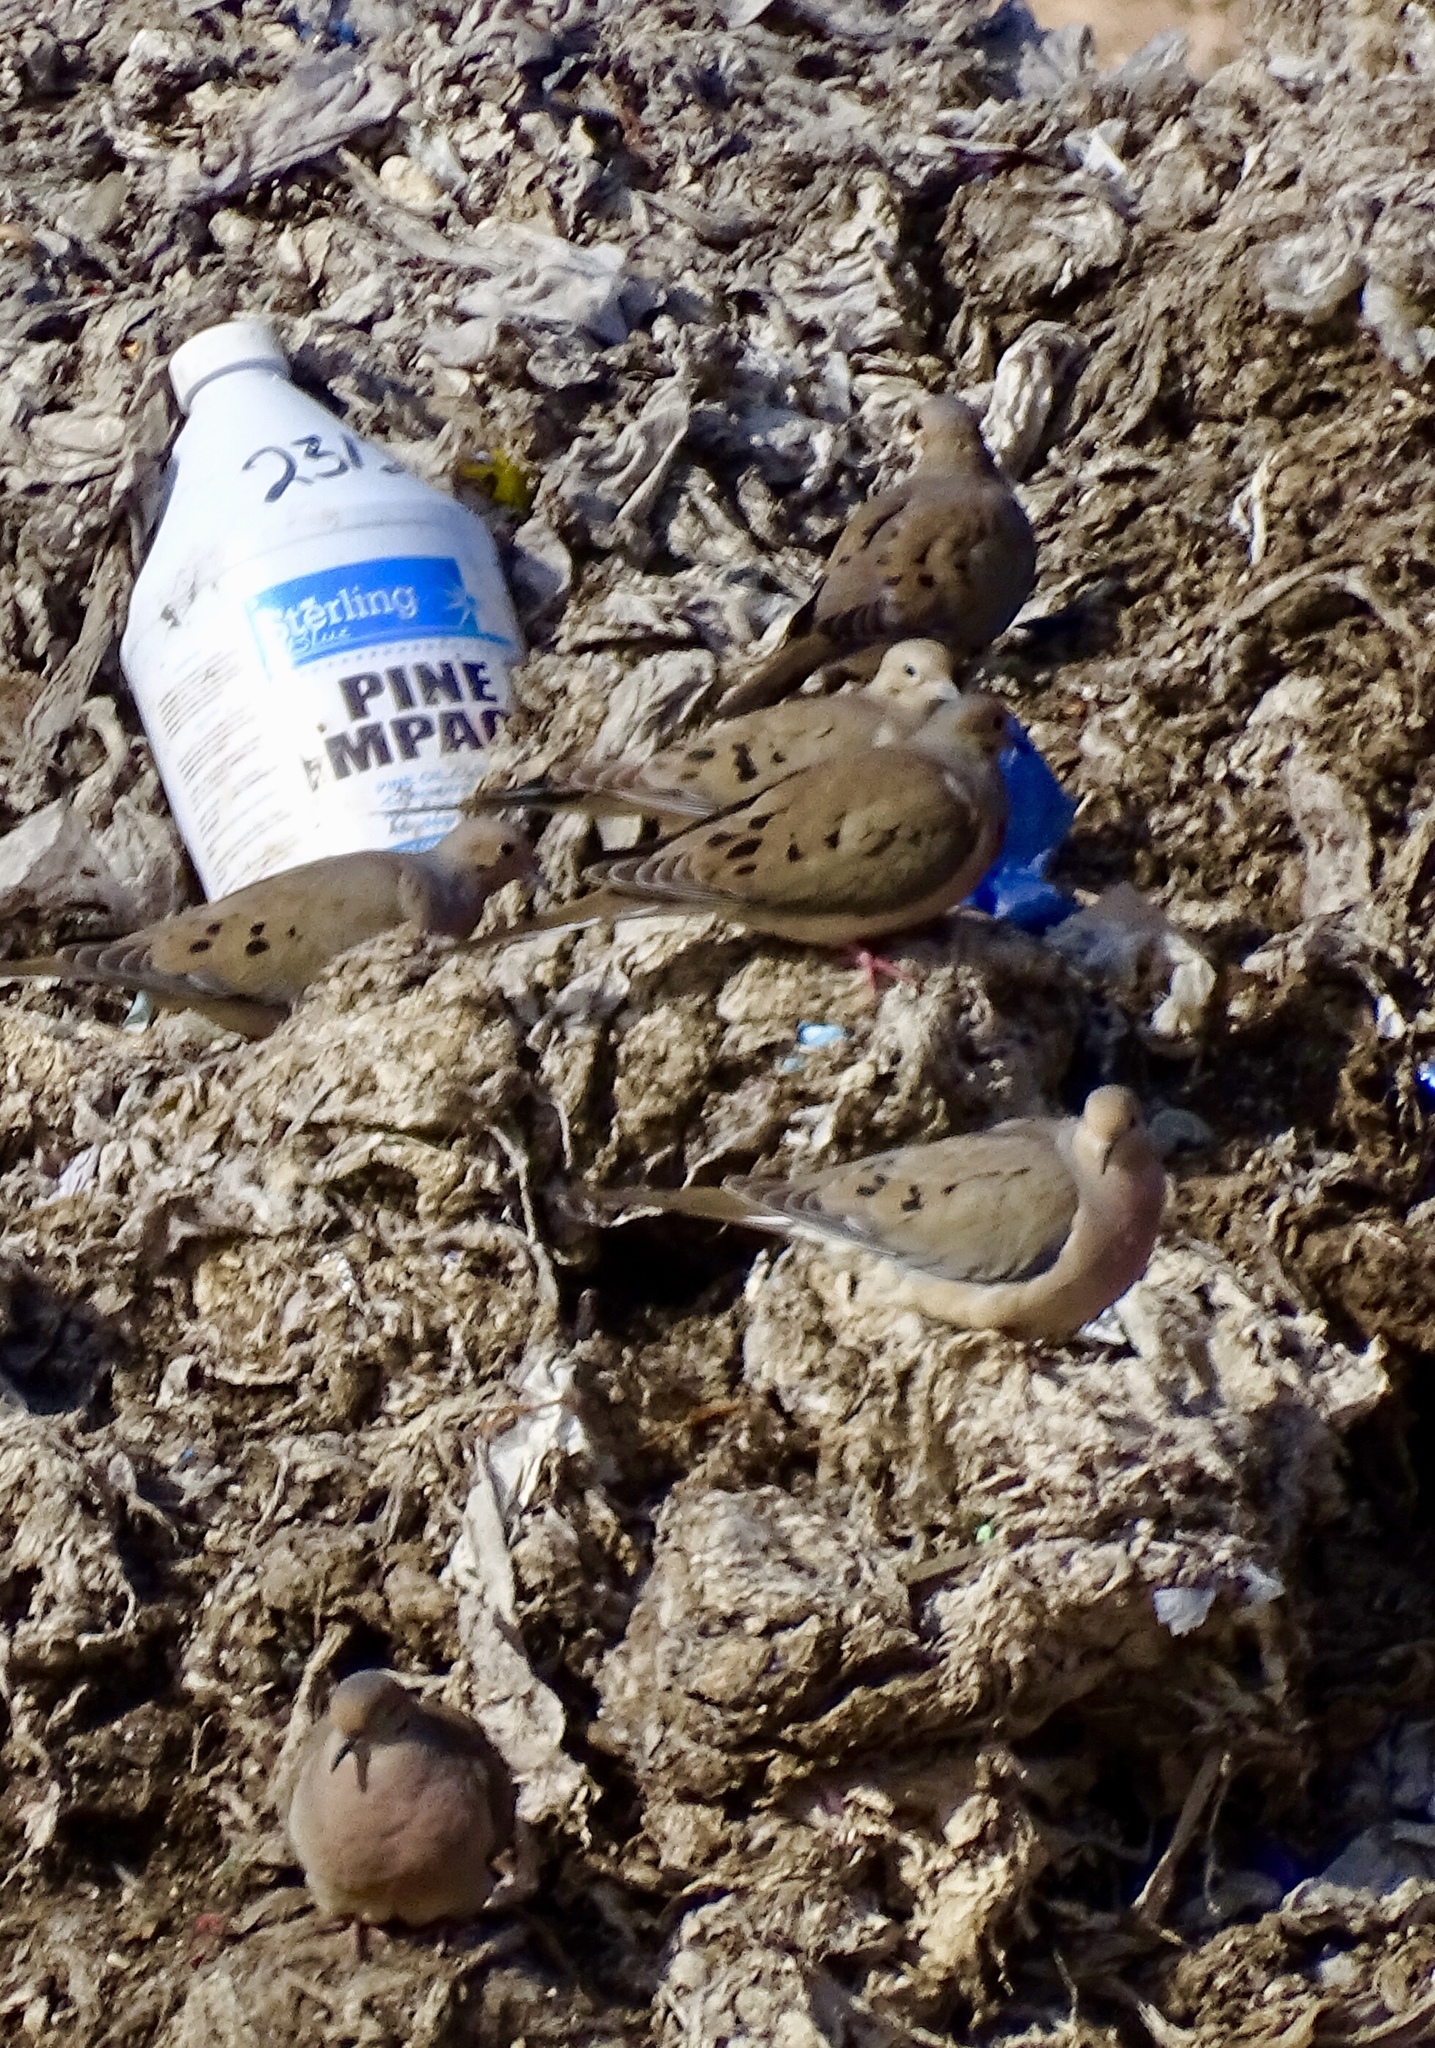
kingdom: Animalia
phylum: Chordata
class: Aves
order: Columbiformes
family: Columbidae
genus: Zenaida
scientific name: Zenaida macroura
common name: Mourning dove
